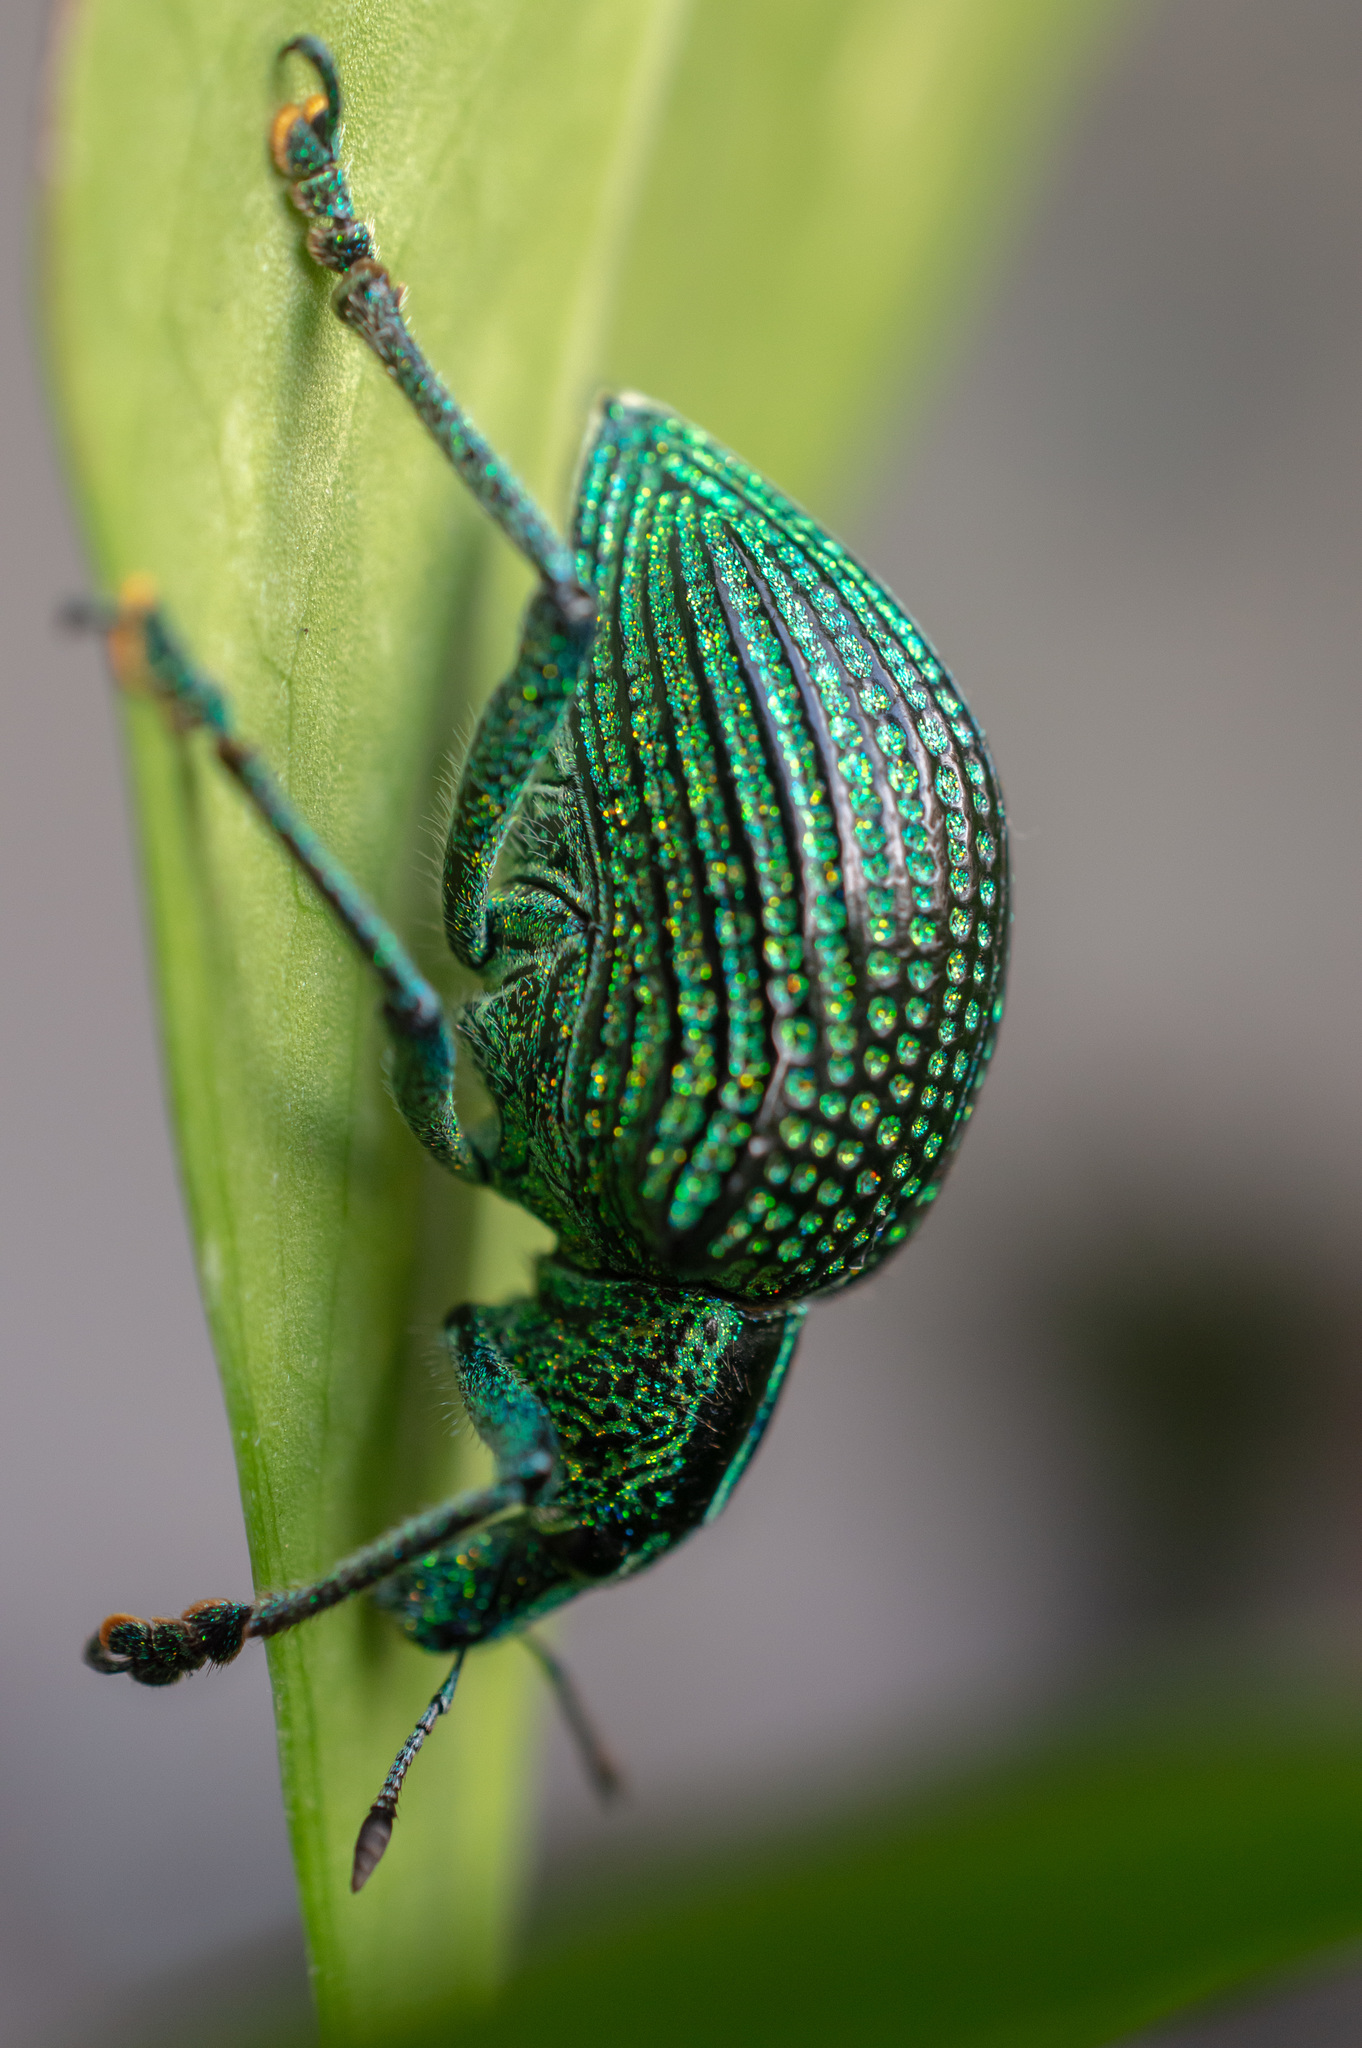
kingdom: Animalia
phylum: Arthropoda
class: Insecta
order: Coleoptera
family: Curculionidae
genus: Entimus
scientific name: Entimus imperialis
